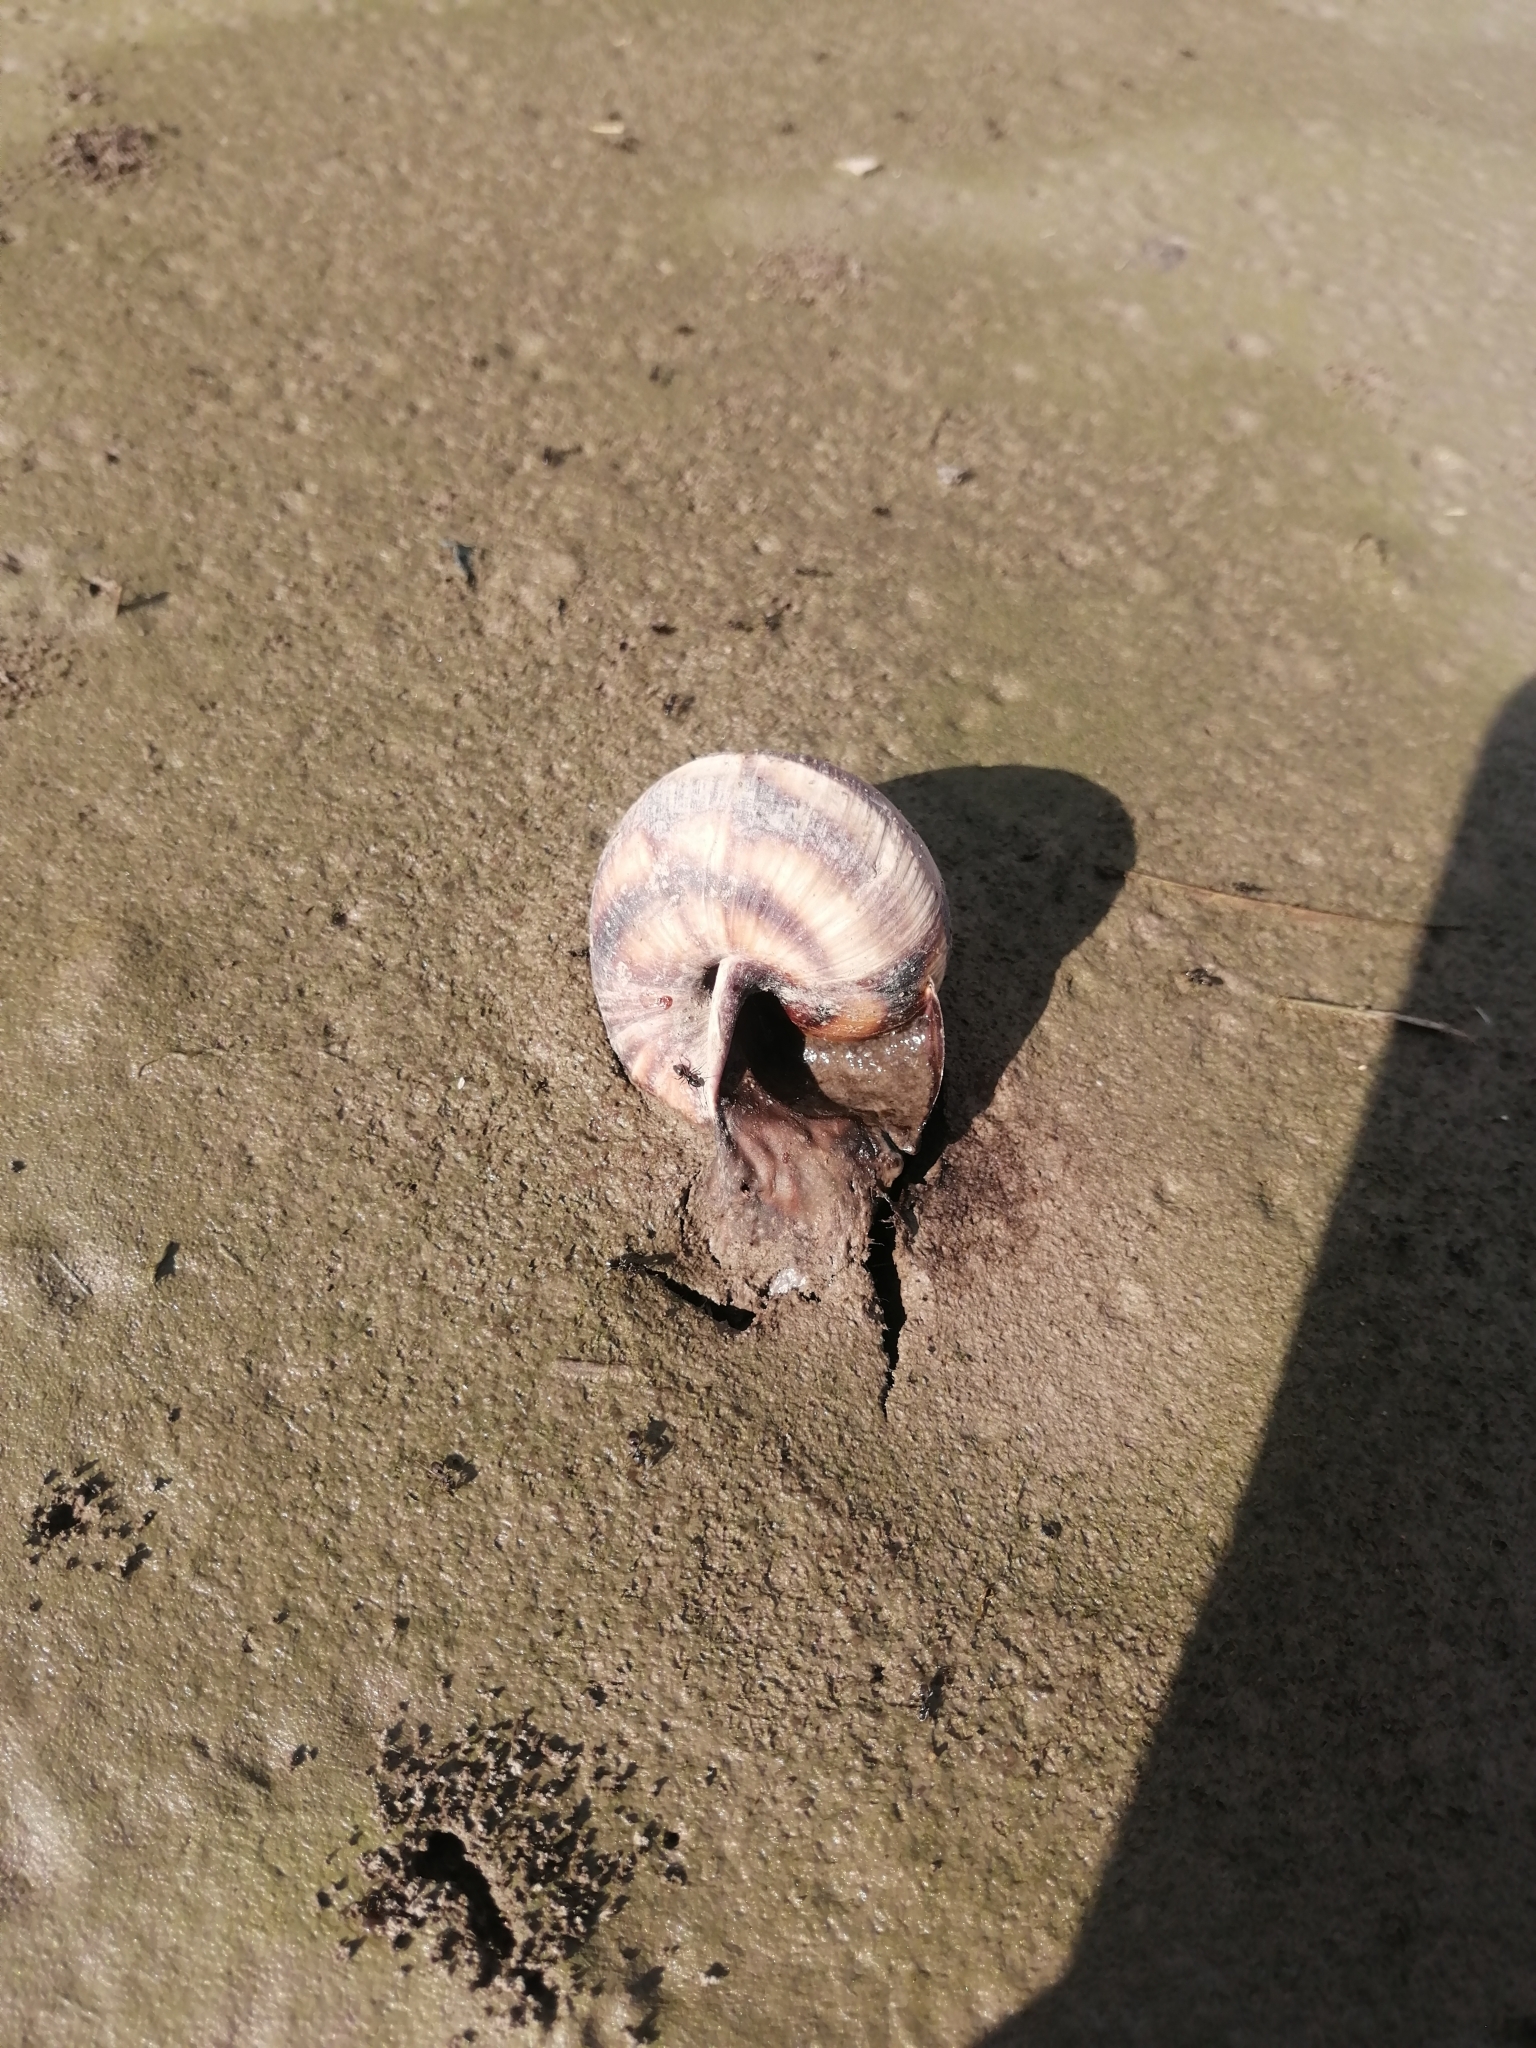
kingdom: Animalia
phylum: Mollusca
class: Gastropoda
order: Stylommatophora
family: Helicidae
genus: Helix
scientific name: Helix lucorum
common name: Turkish snail
